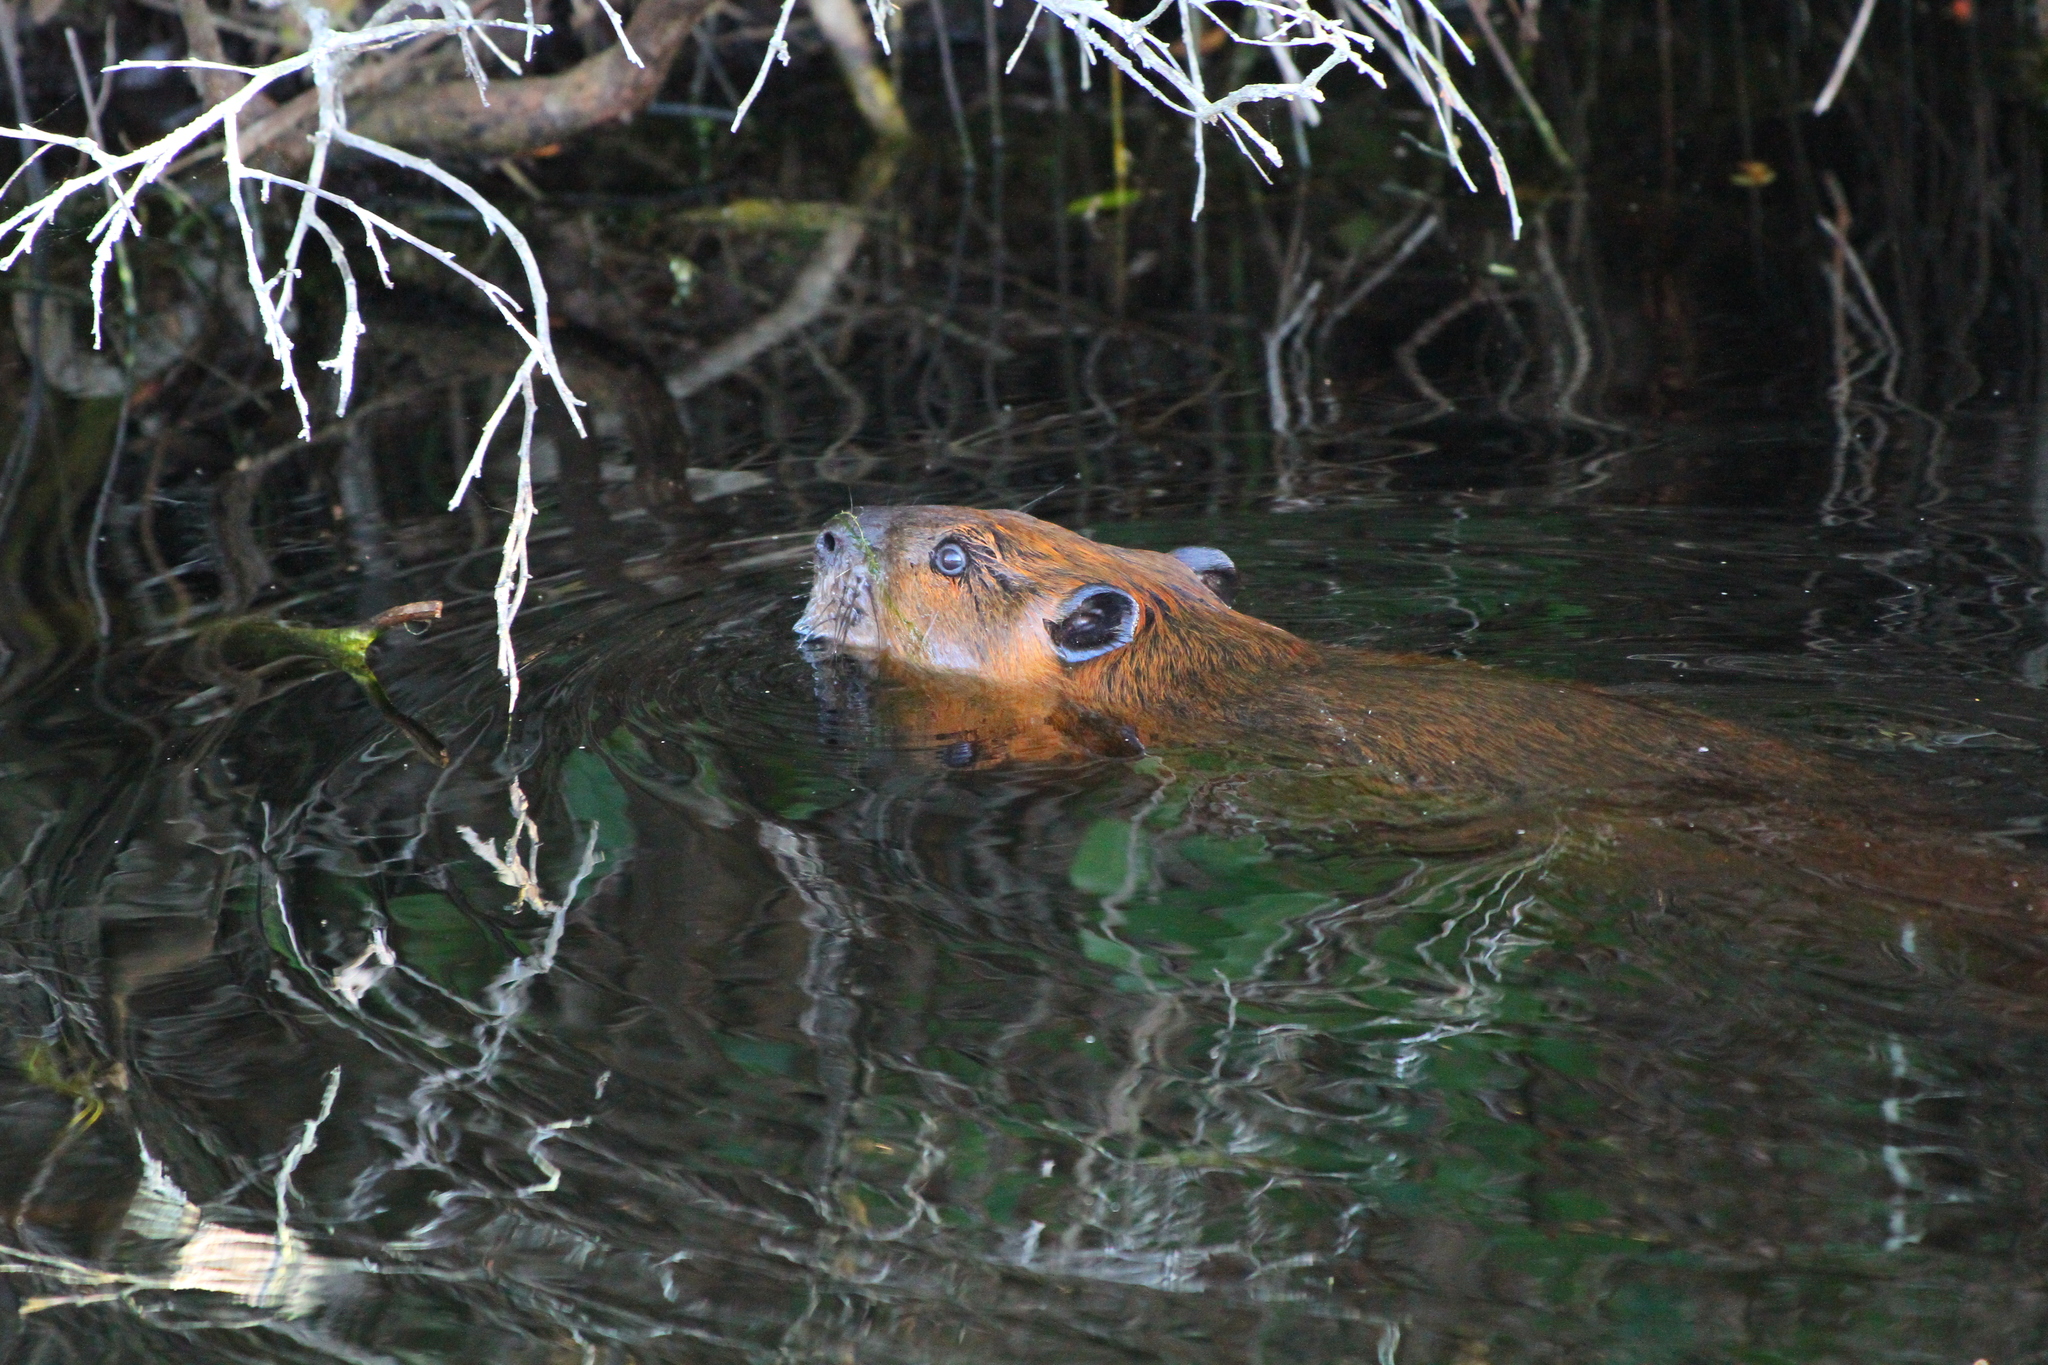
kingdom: Animalia
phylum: Chordata
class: Mammalia
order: Rodentia
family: Castoridae
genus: Castor
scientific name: Castor canadensis
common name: American beaver
